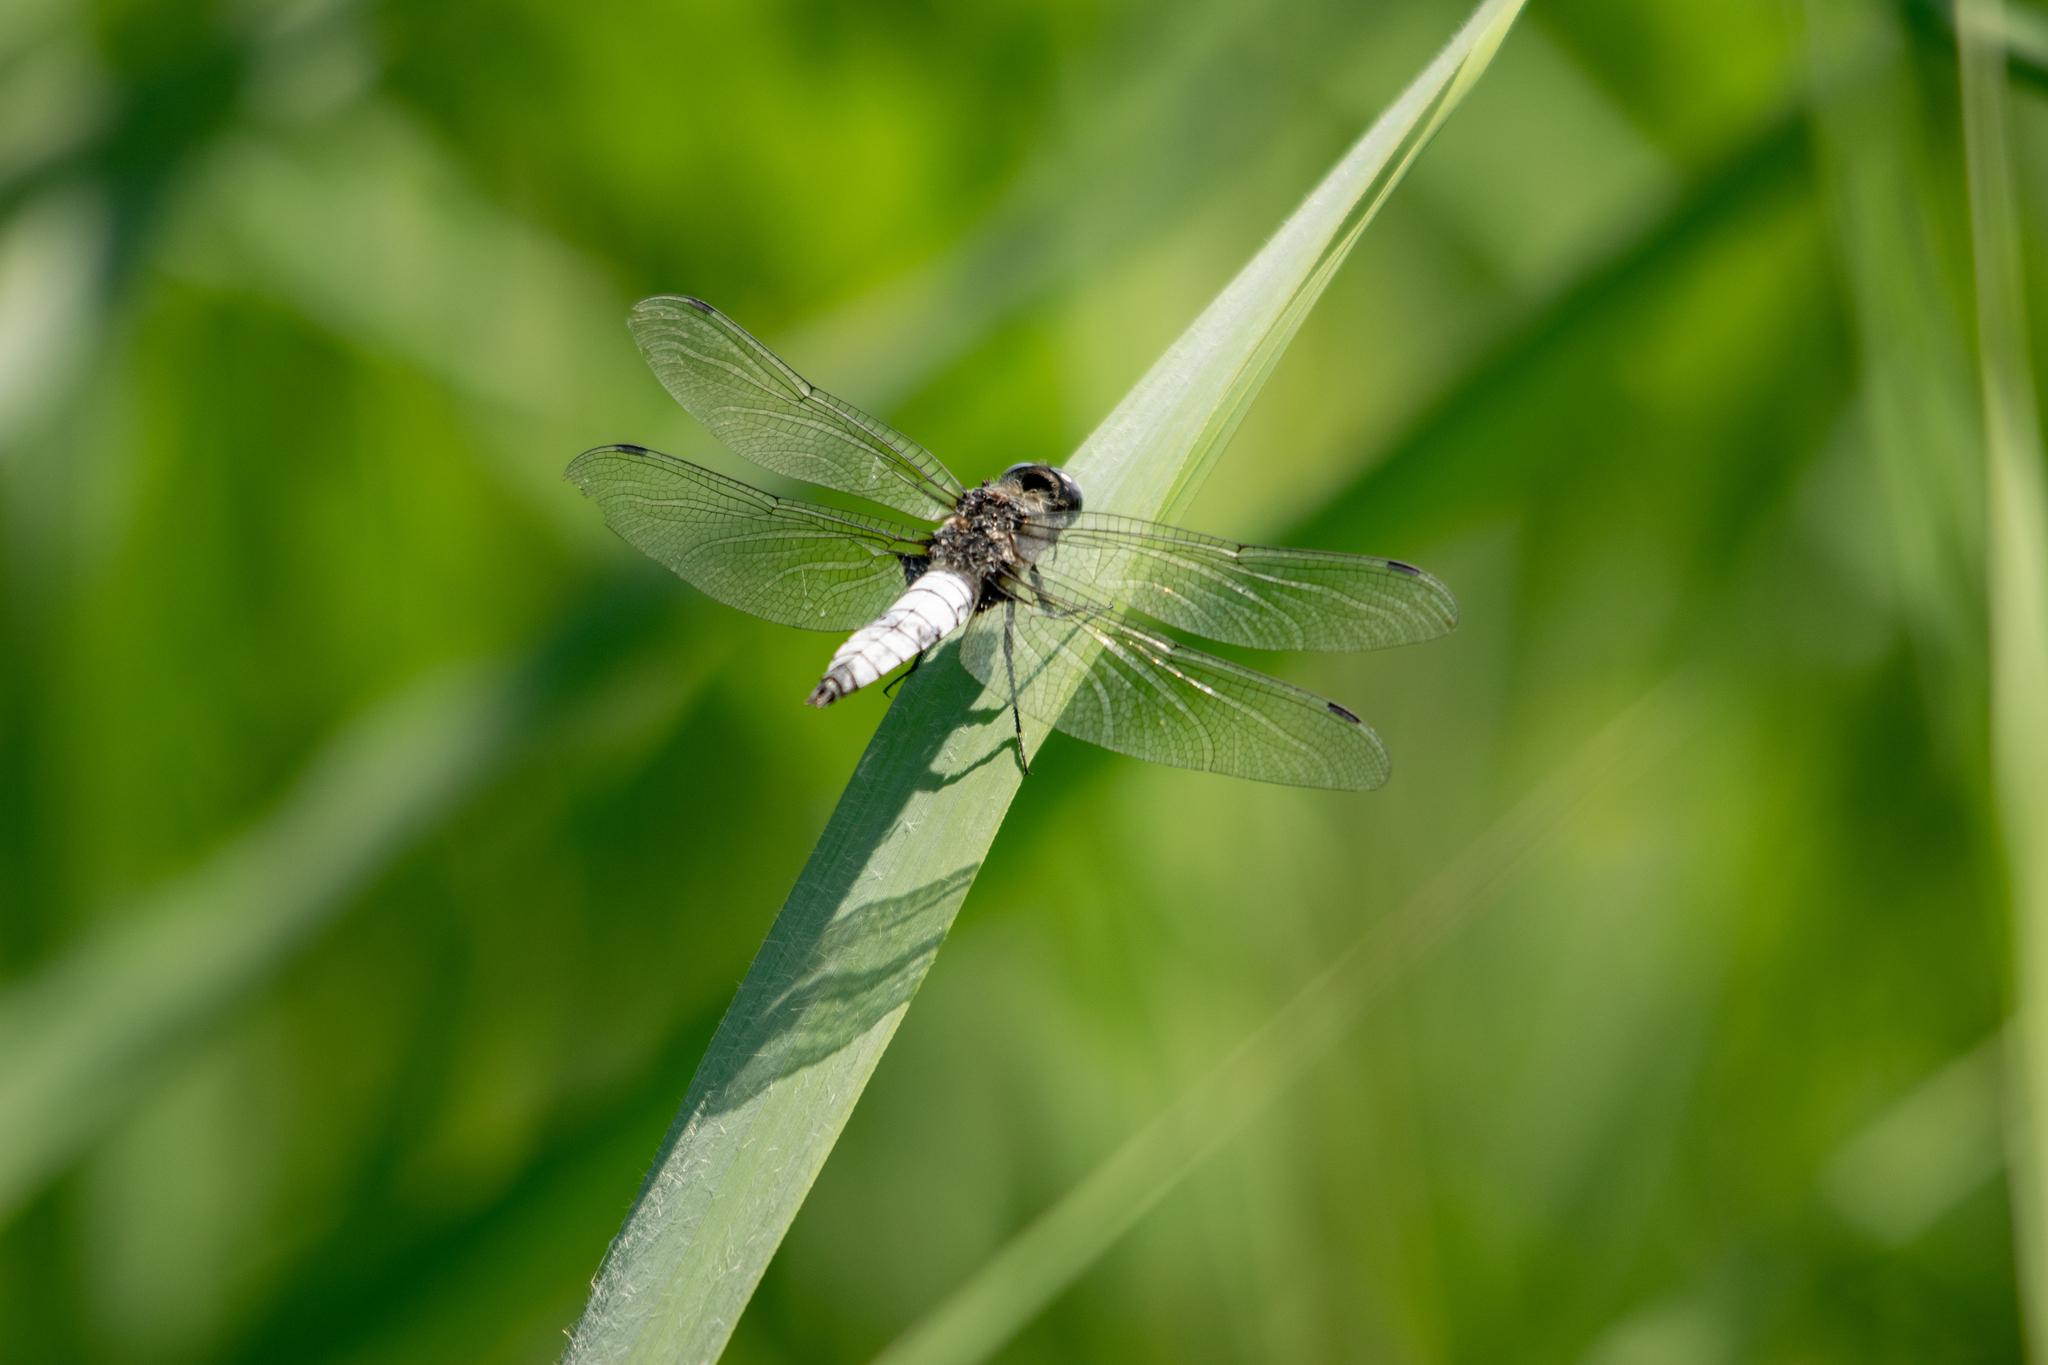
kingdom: Animalia
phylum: Arthropoda
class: Insecta
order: Odonata
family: Libellulidae
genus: Libellula
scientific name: Libellula fulva
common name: Blue chaser
